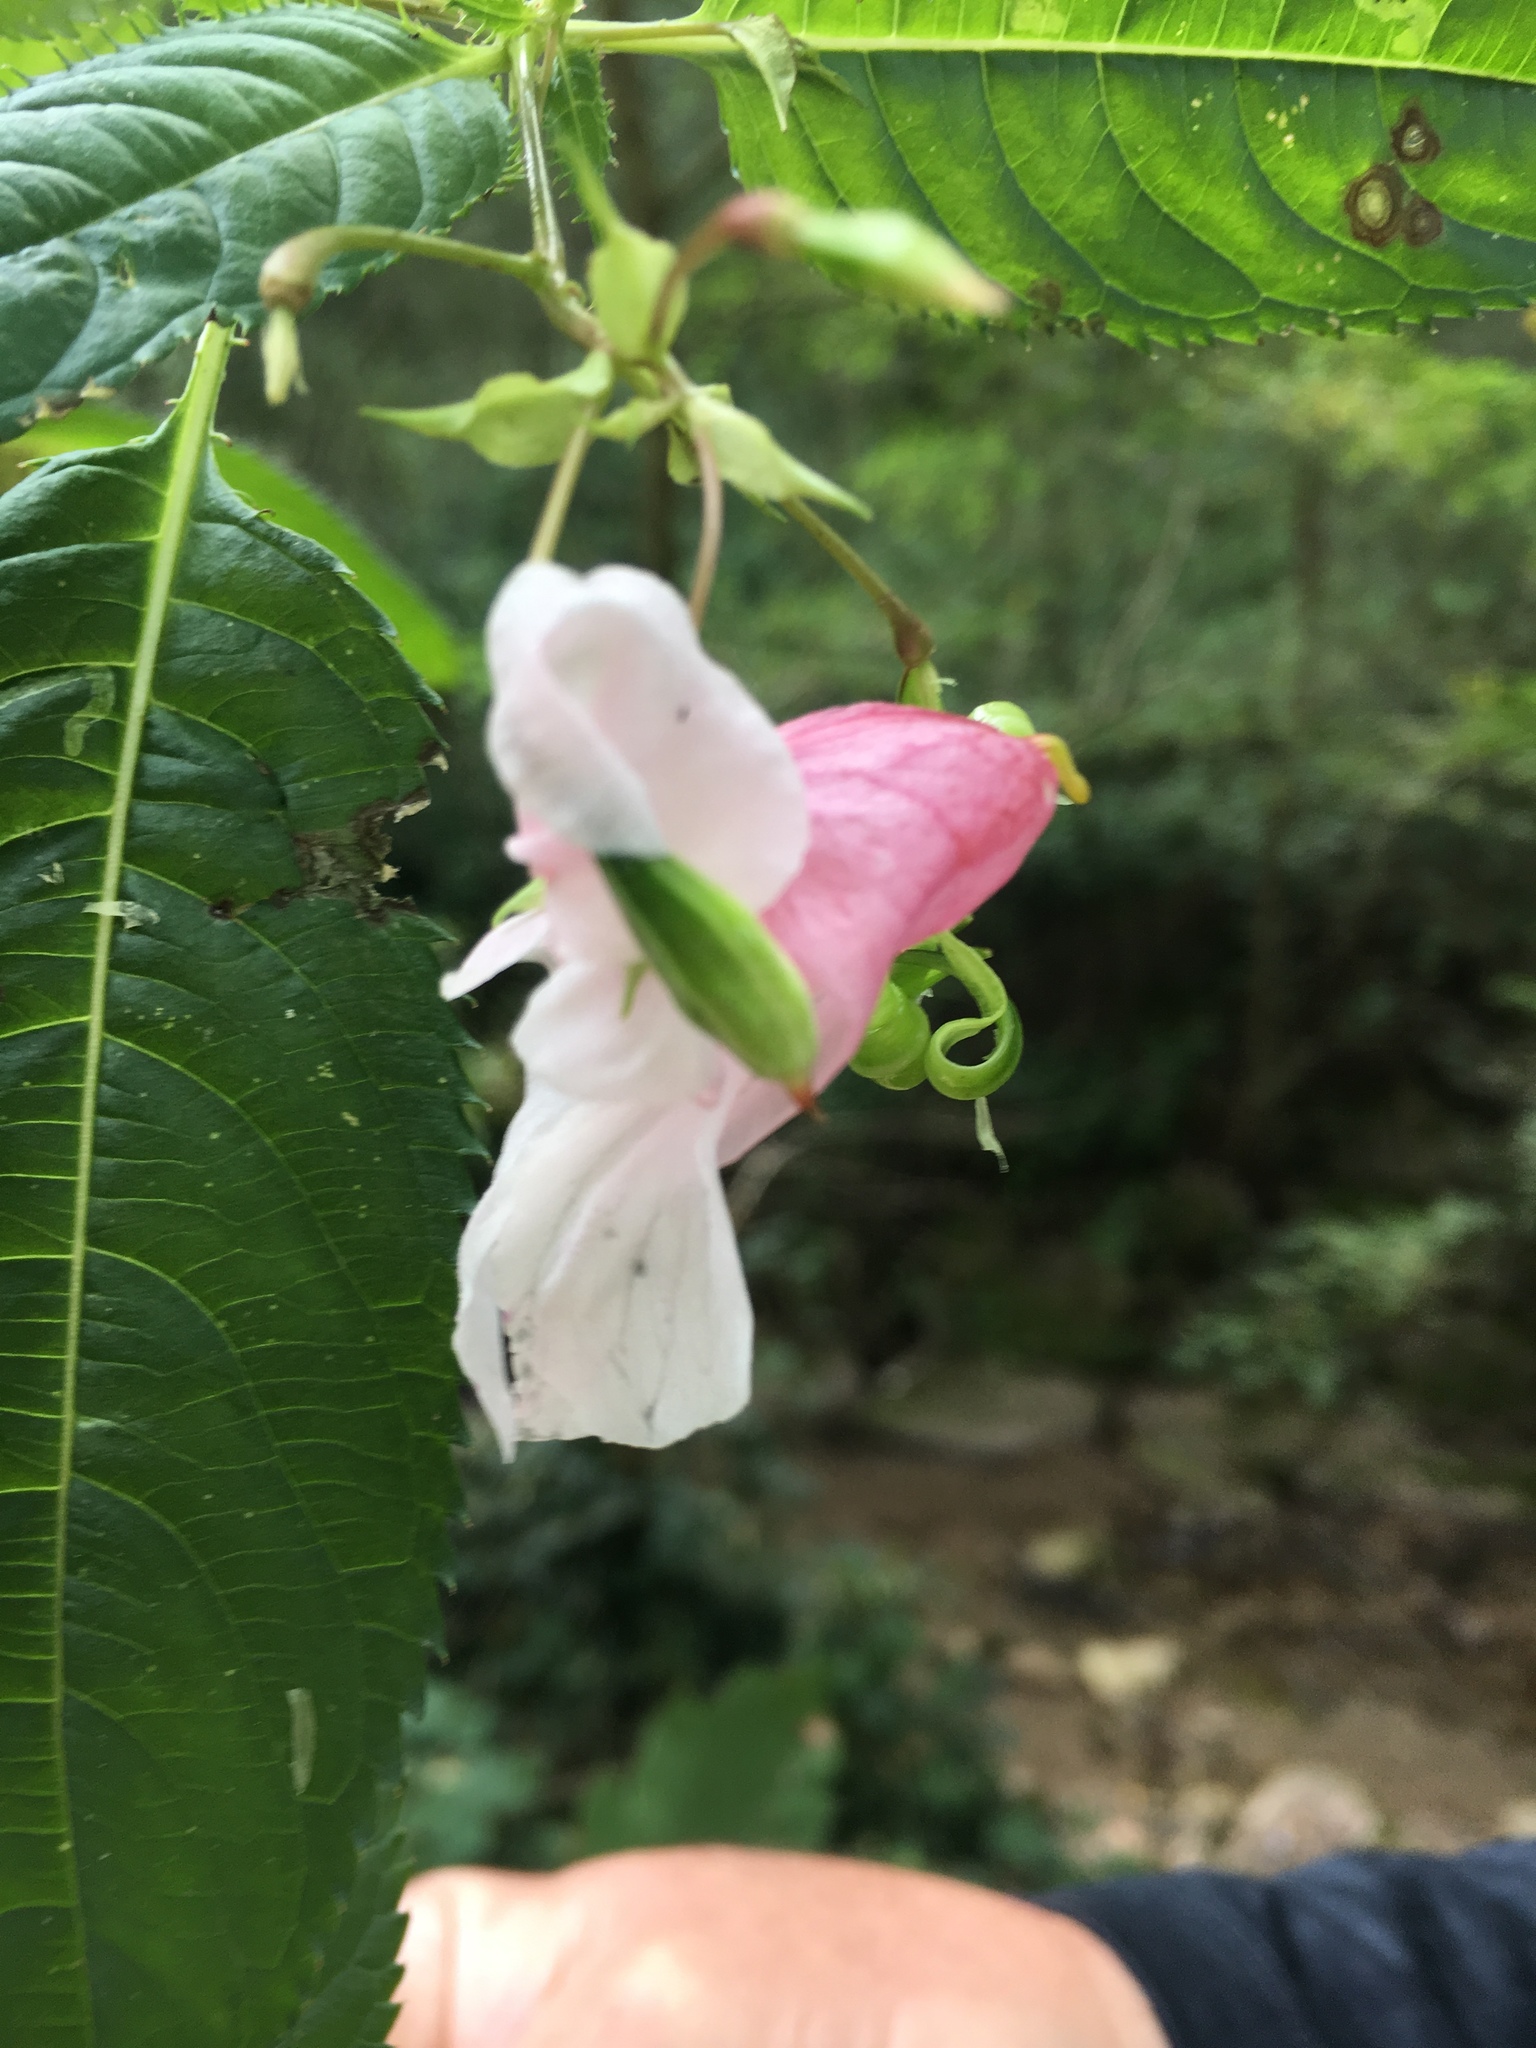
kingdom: Plantae
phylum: Tracheophyta
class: Magnoliopsida
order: Ericales
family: Balsaminaceae
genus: Impatiens
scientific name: Impatiens glandulifera
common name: Himalayan balsam
